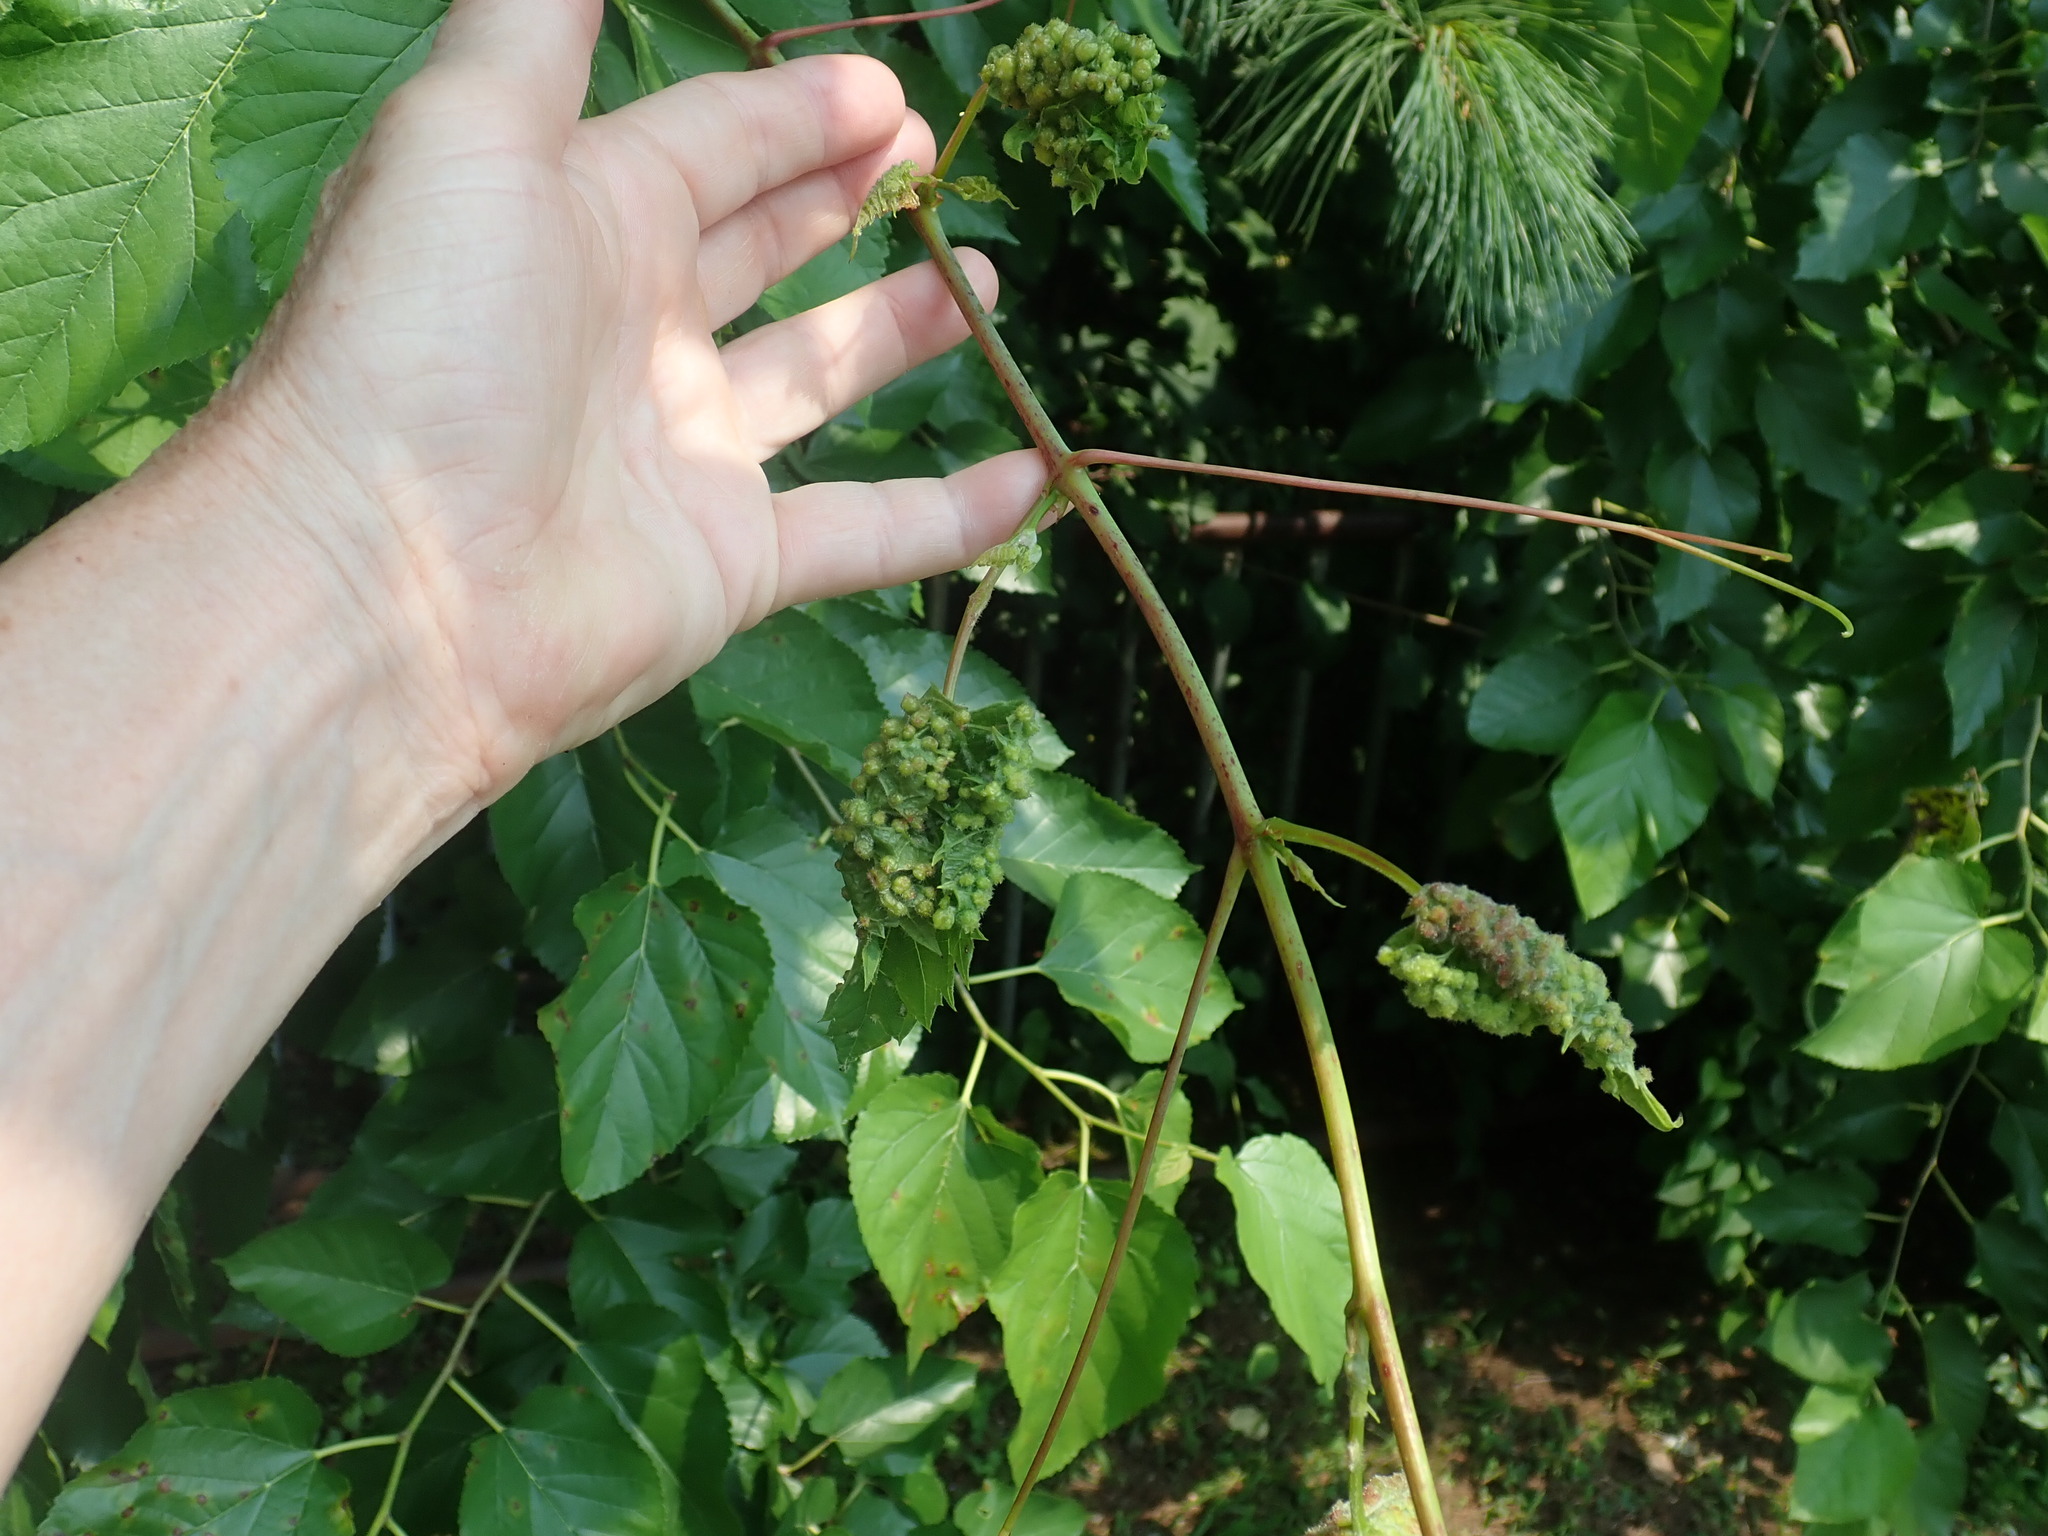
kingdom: Animalia
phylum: Arthropoda
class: Insecta
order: Hemiptera
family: Phylloxeridae
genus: Daktulosphaira
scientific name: Daktulosphaira vitifoliae
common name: Grape phylloxera
